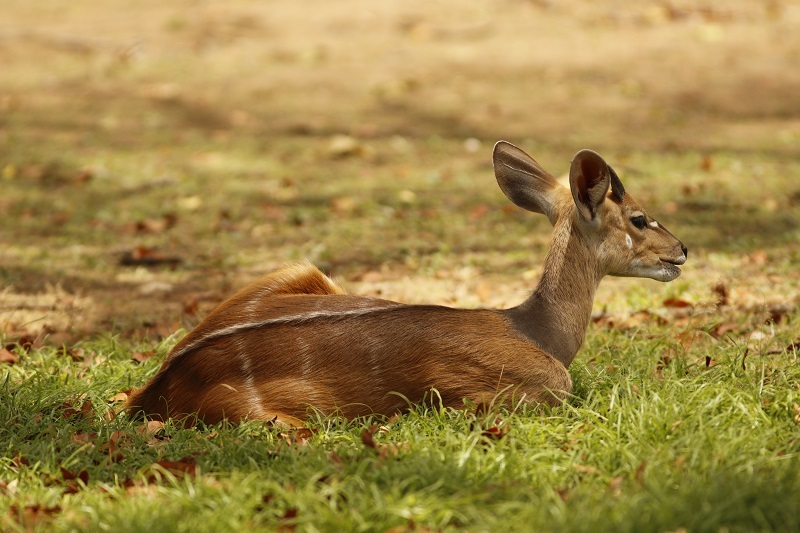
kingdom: Animalia
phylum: Chordata
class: Mammalia
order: Artiodactyla
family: Bovidae
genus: Tragelaphus
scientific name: Tragelaphus scriptus
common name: Bushbuck
